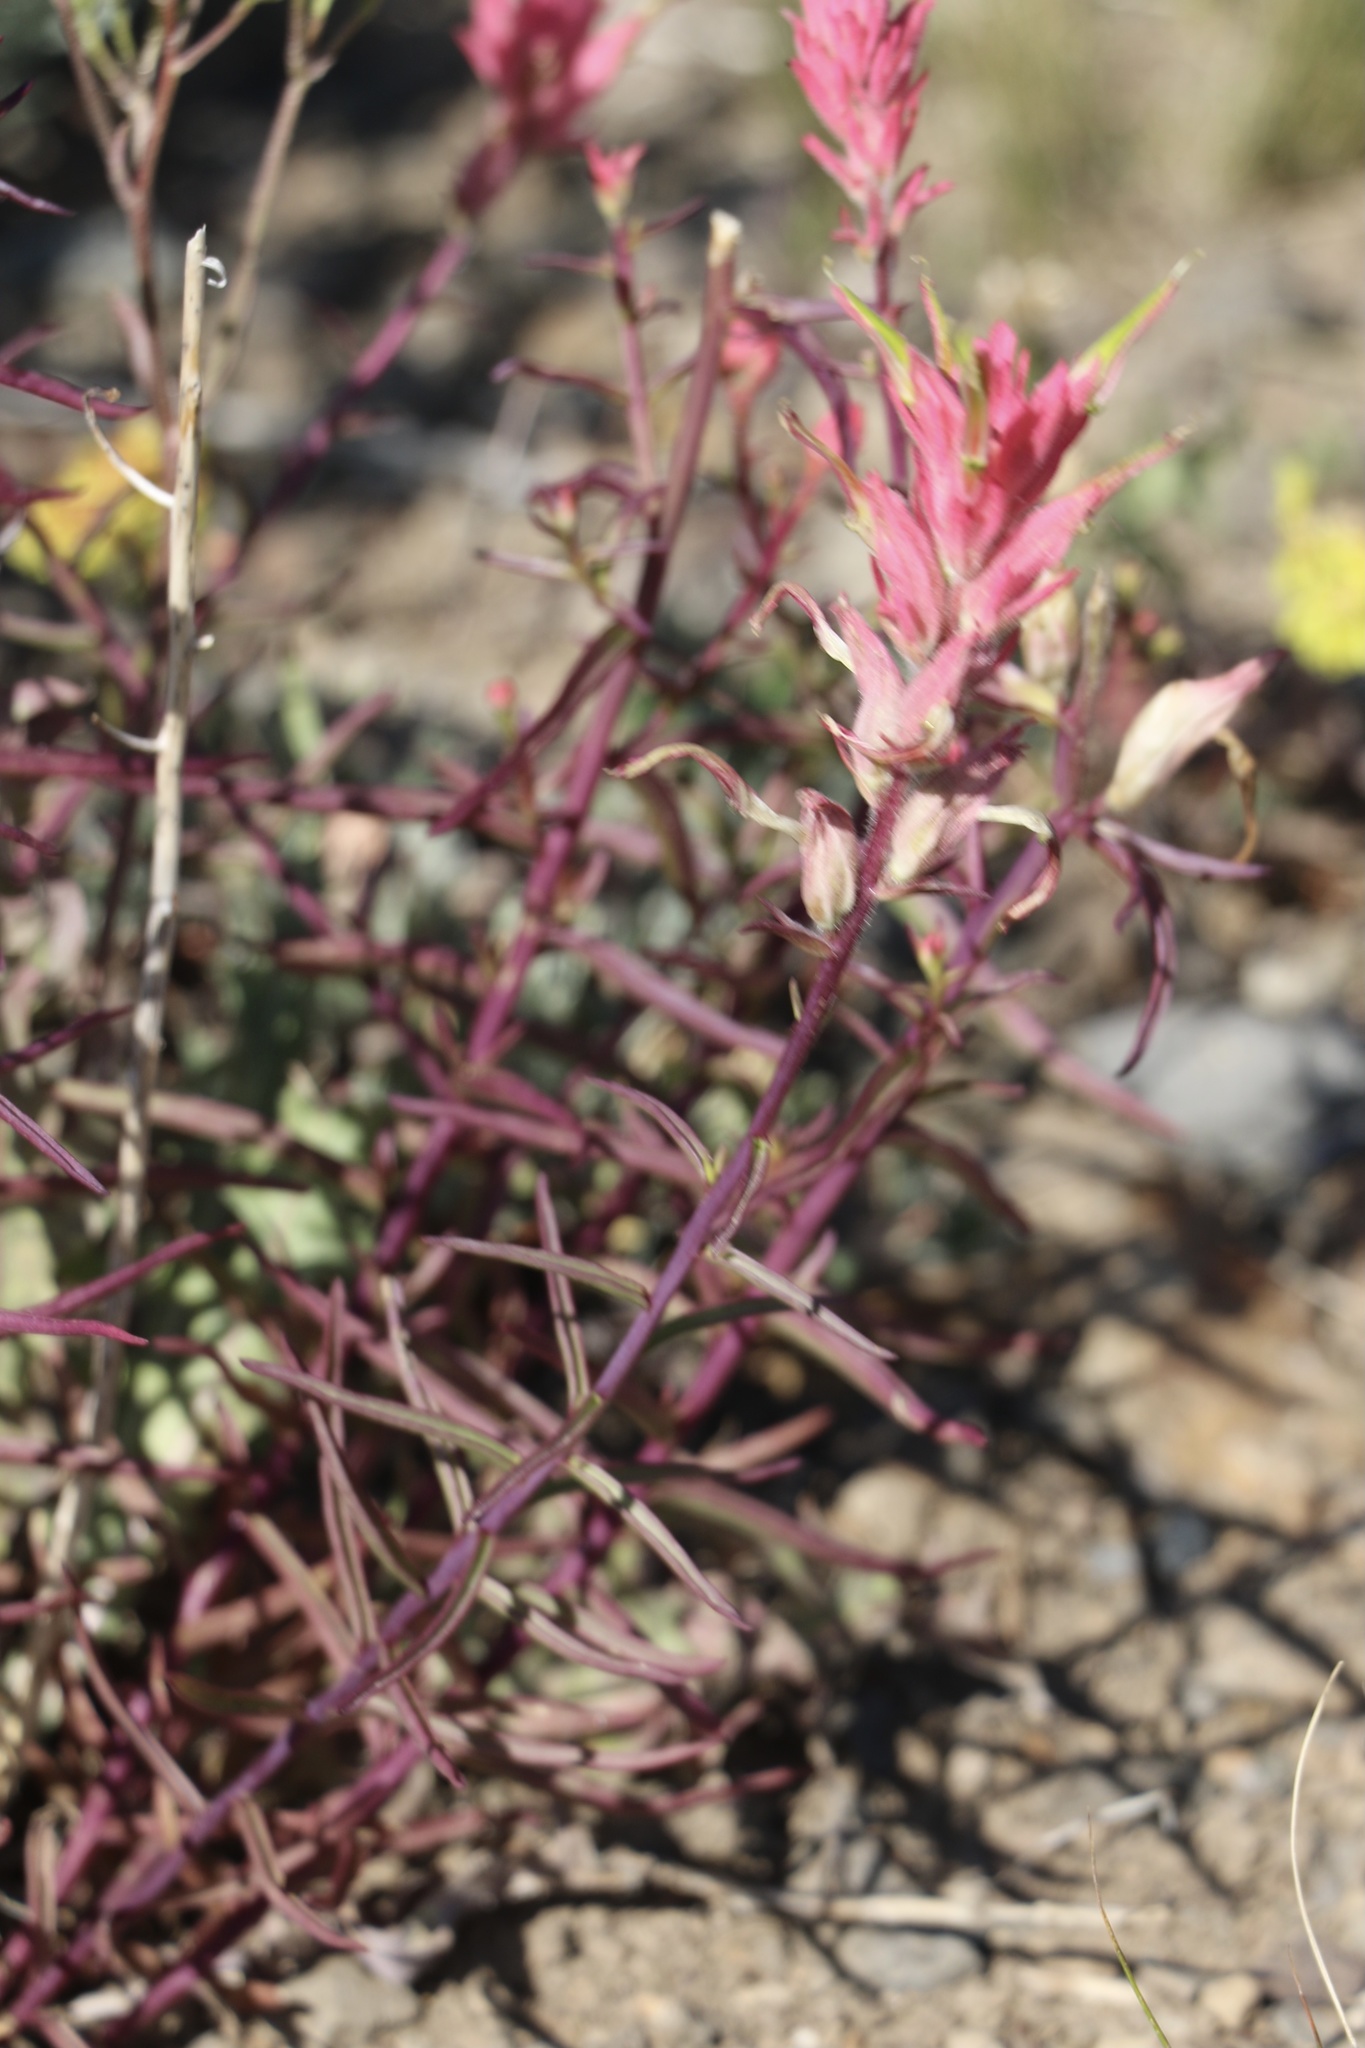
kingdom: Plantae
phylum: Tracheophyta
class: Magnoliopsida
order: Lamiales
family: Orobanchaceae
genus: Castilleja
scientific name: Castilleja linariifolia
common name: Wyoming paintbrush
